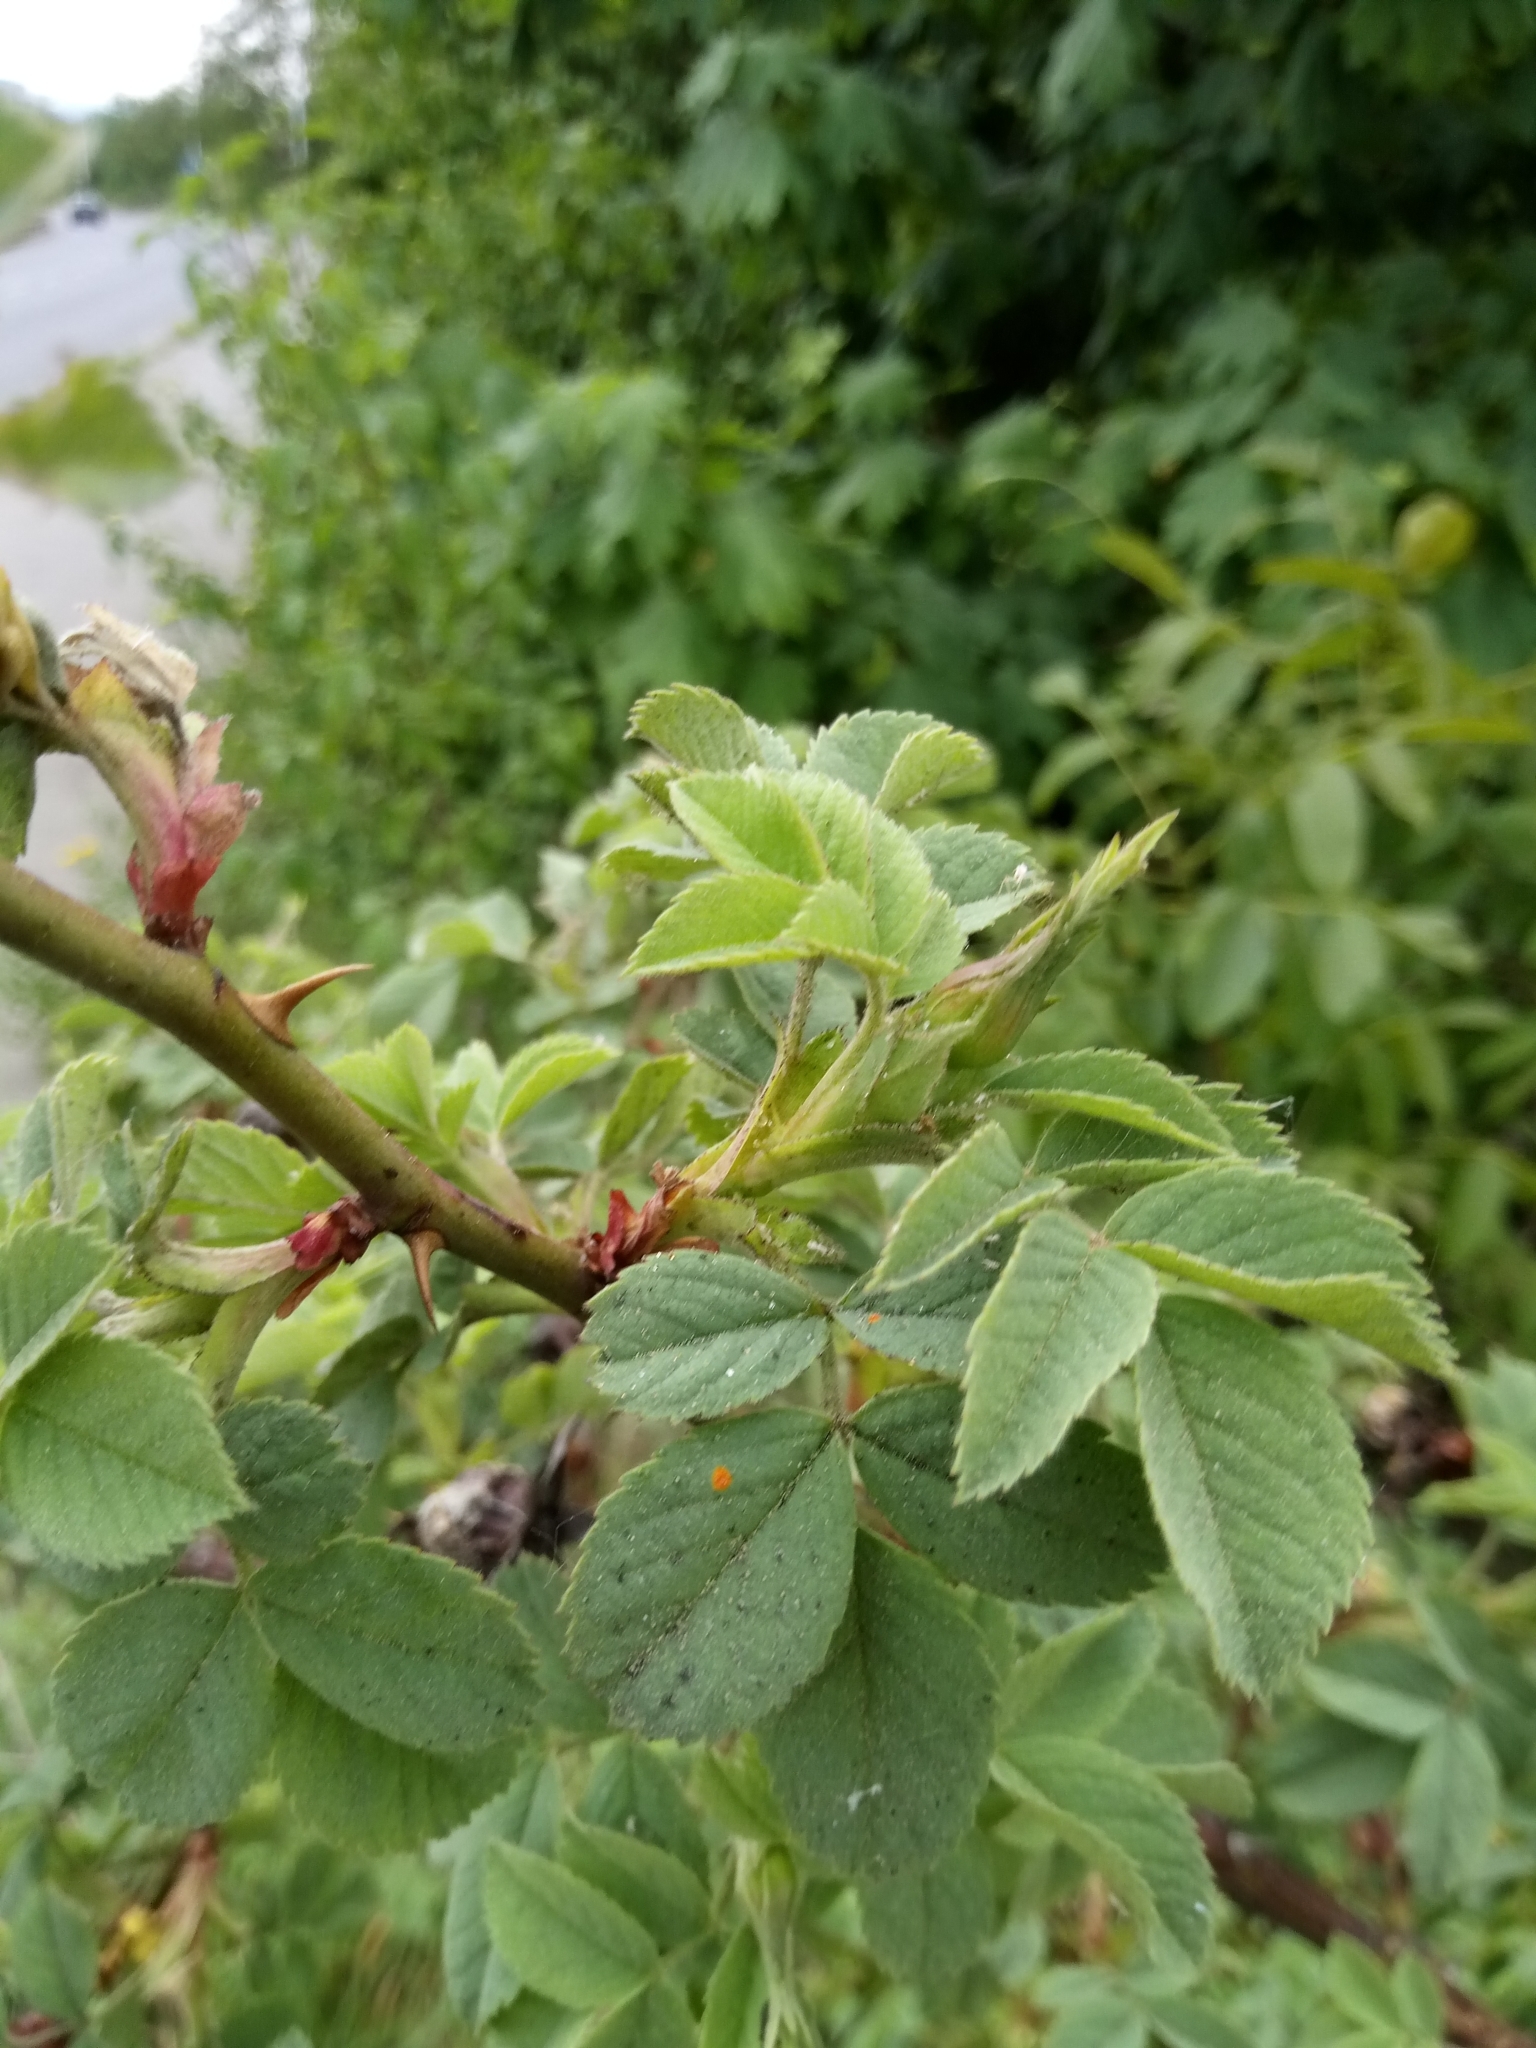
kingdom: Plantae
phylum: Tracheophyta
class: Magnoliopsida
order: Rosales
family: Rosaceae
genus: Rosa
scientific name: Rosa dumalis
